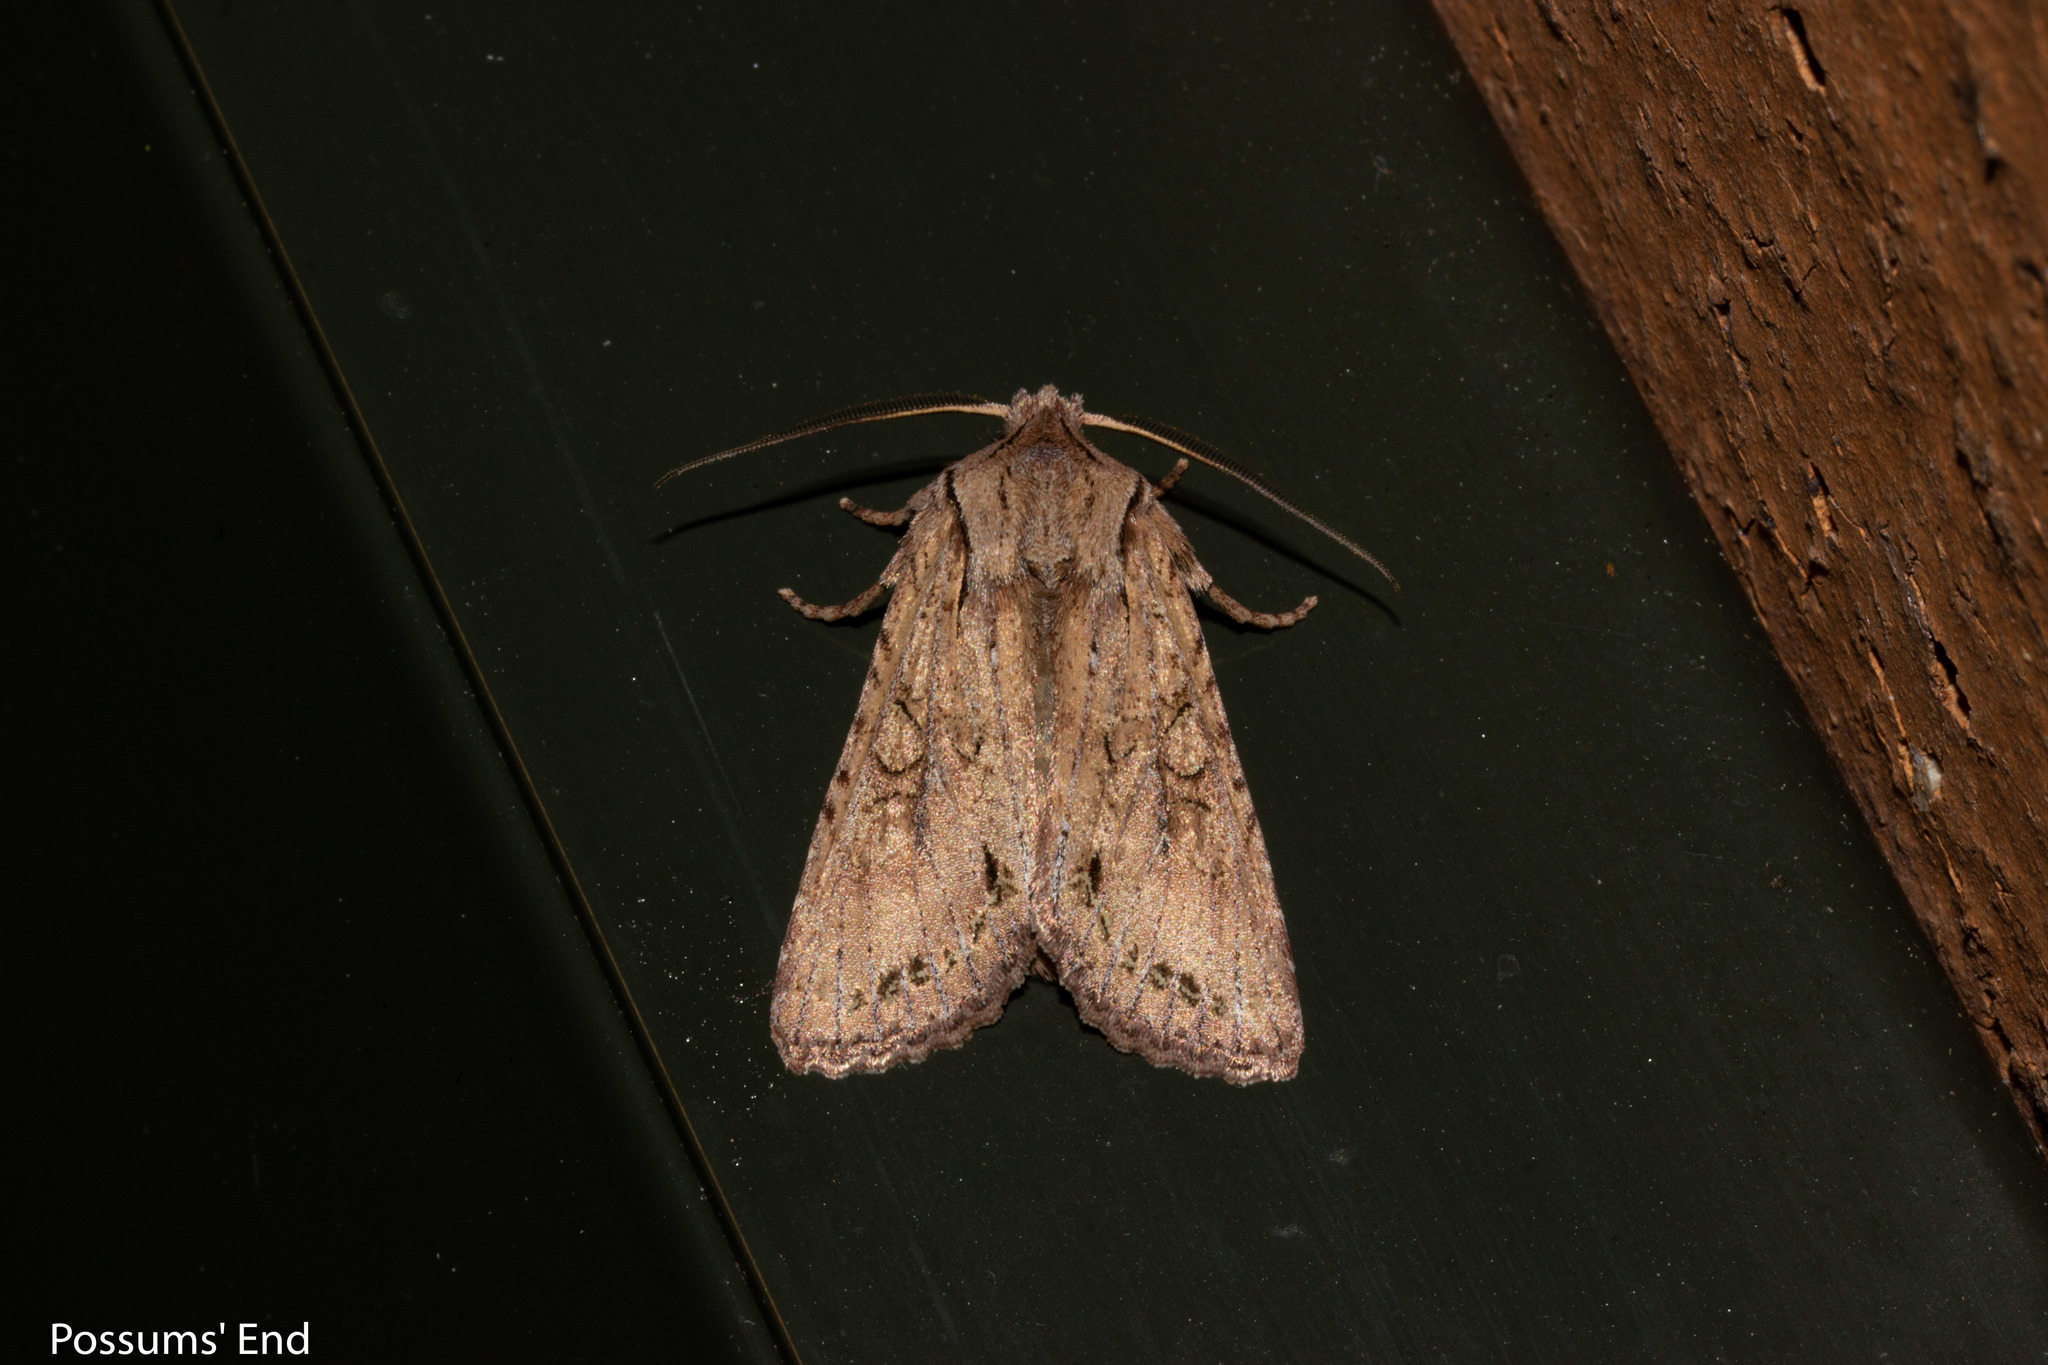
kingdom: Animalia
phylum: Arthropoda
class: Insecta
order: Lepidoptera
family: Noctuidae
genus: Ichneutica
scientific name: Ichneutica
